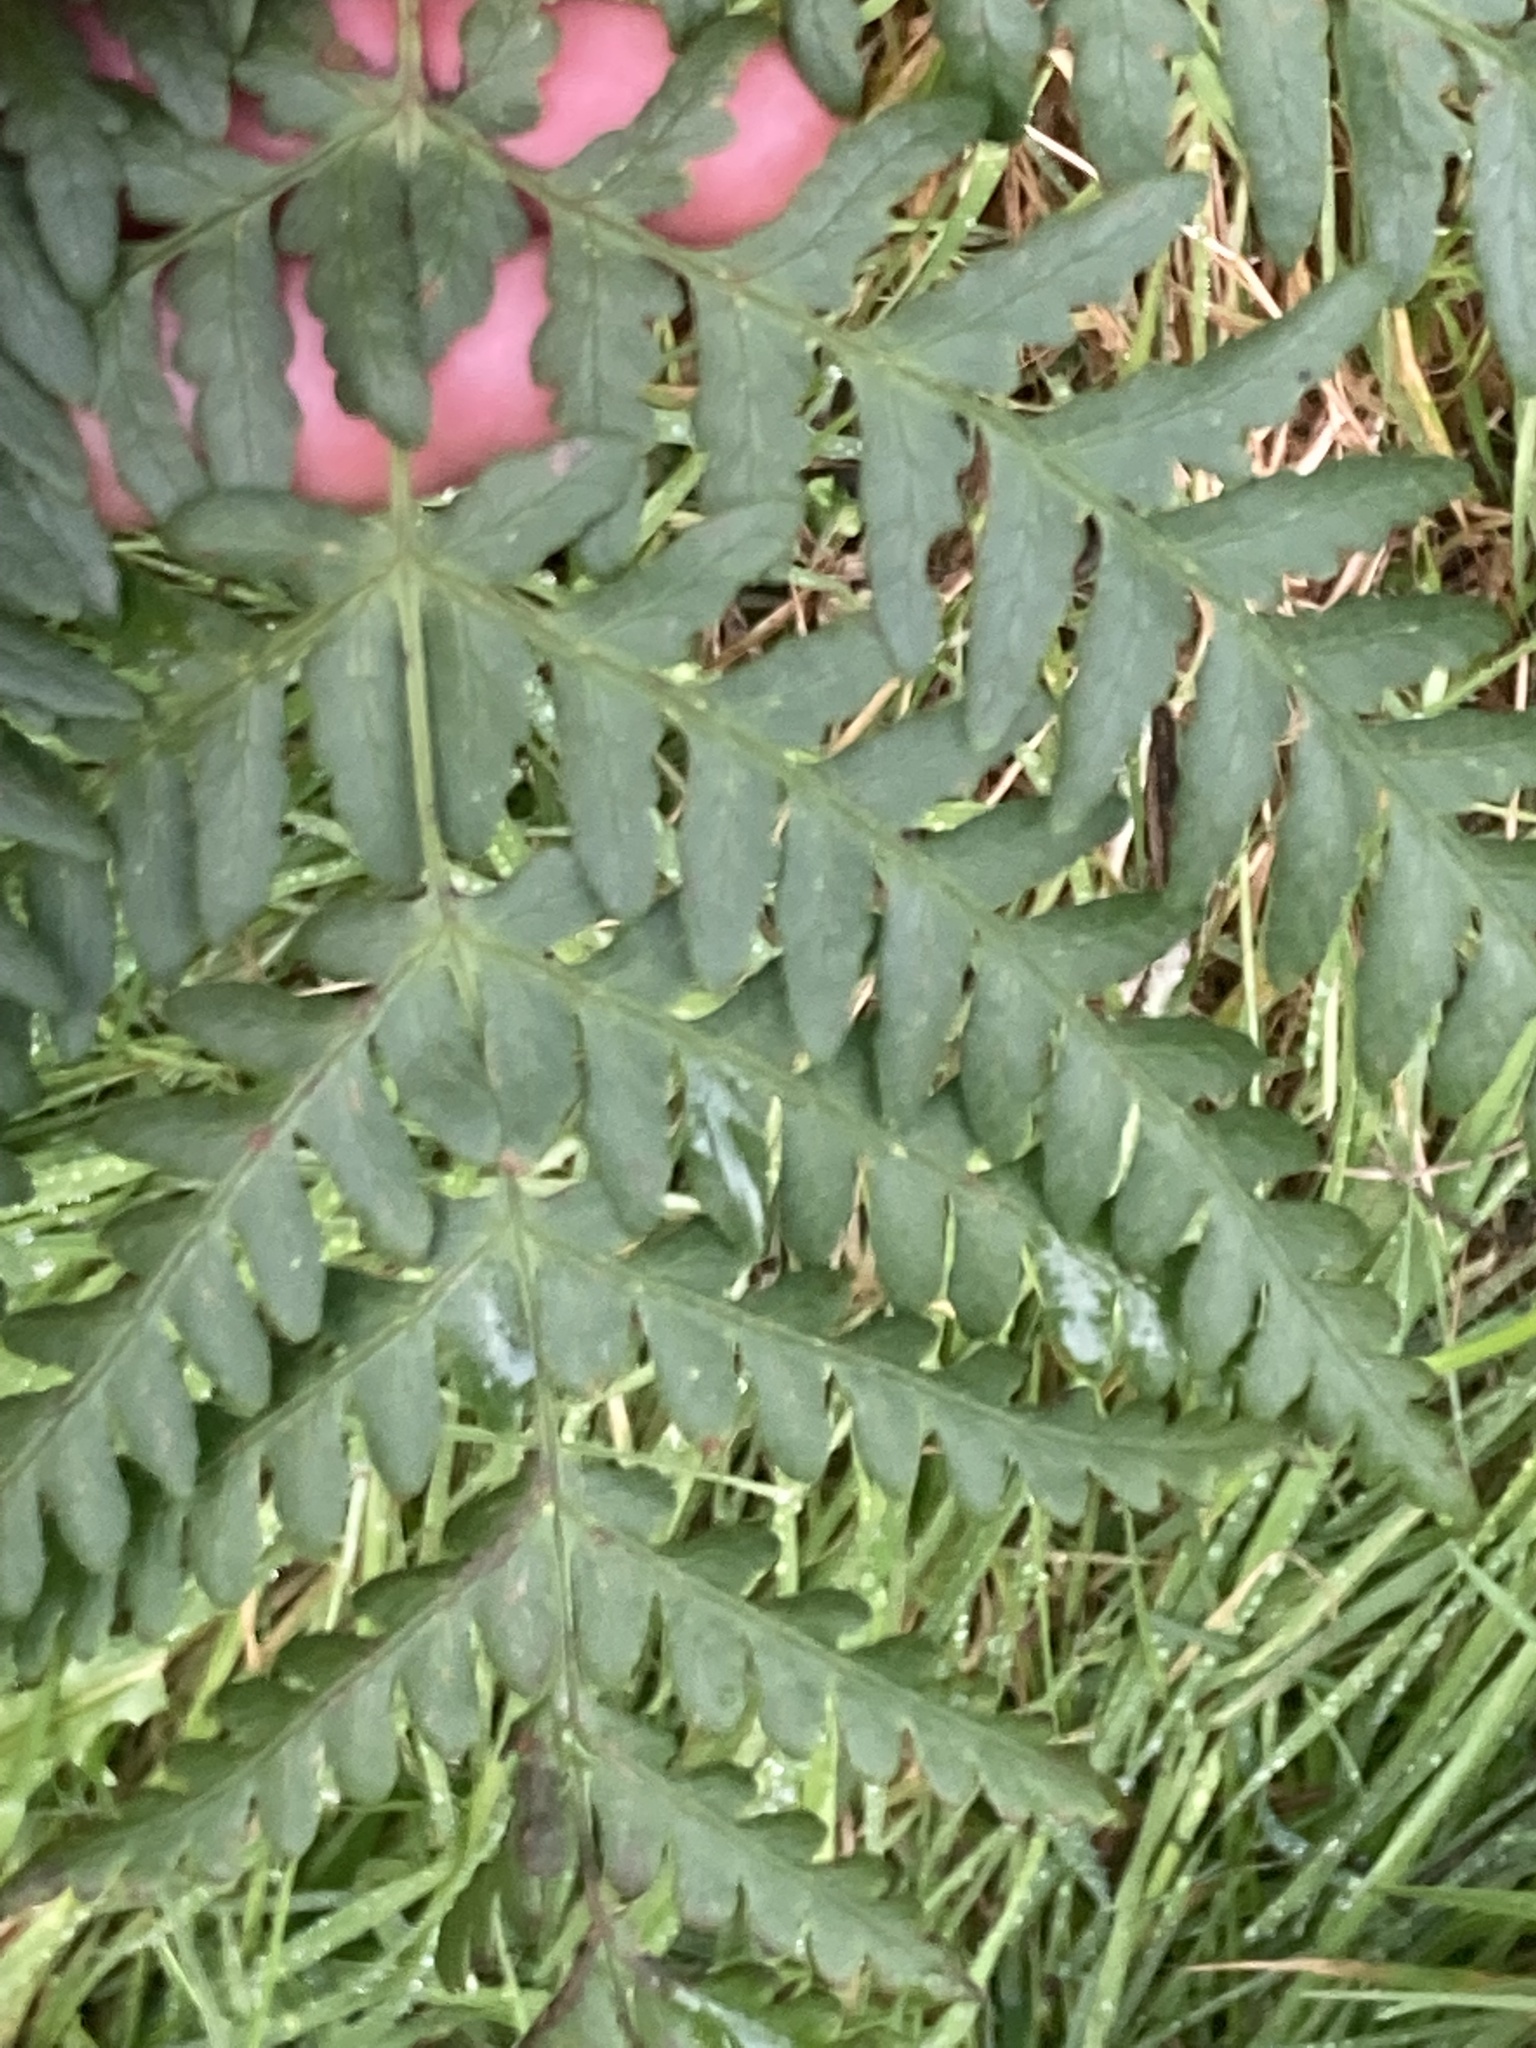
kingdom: Plantae
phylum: Tracheophyta
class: Polypodiopsida
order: Polypodiales
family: Dennstaedtiaceae
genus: Histiopteris
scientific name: Histiopteris incisa
